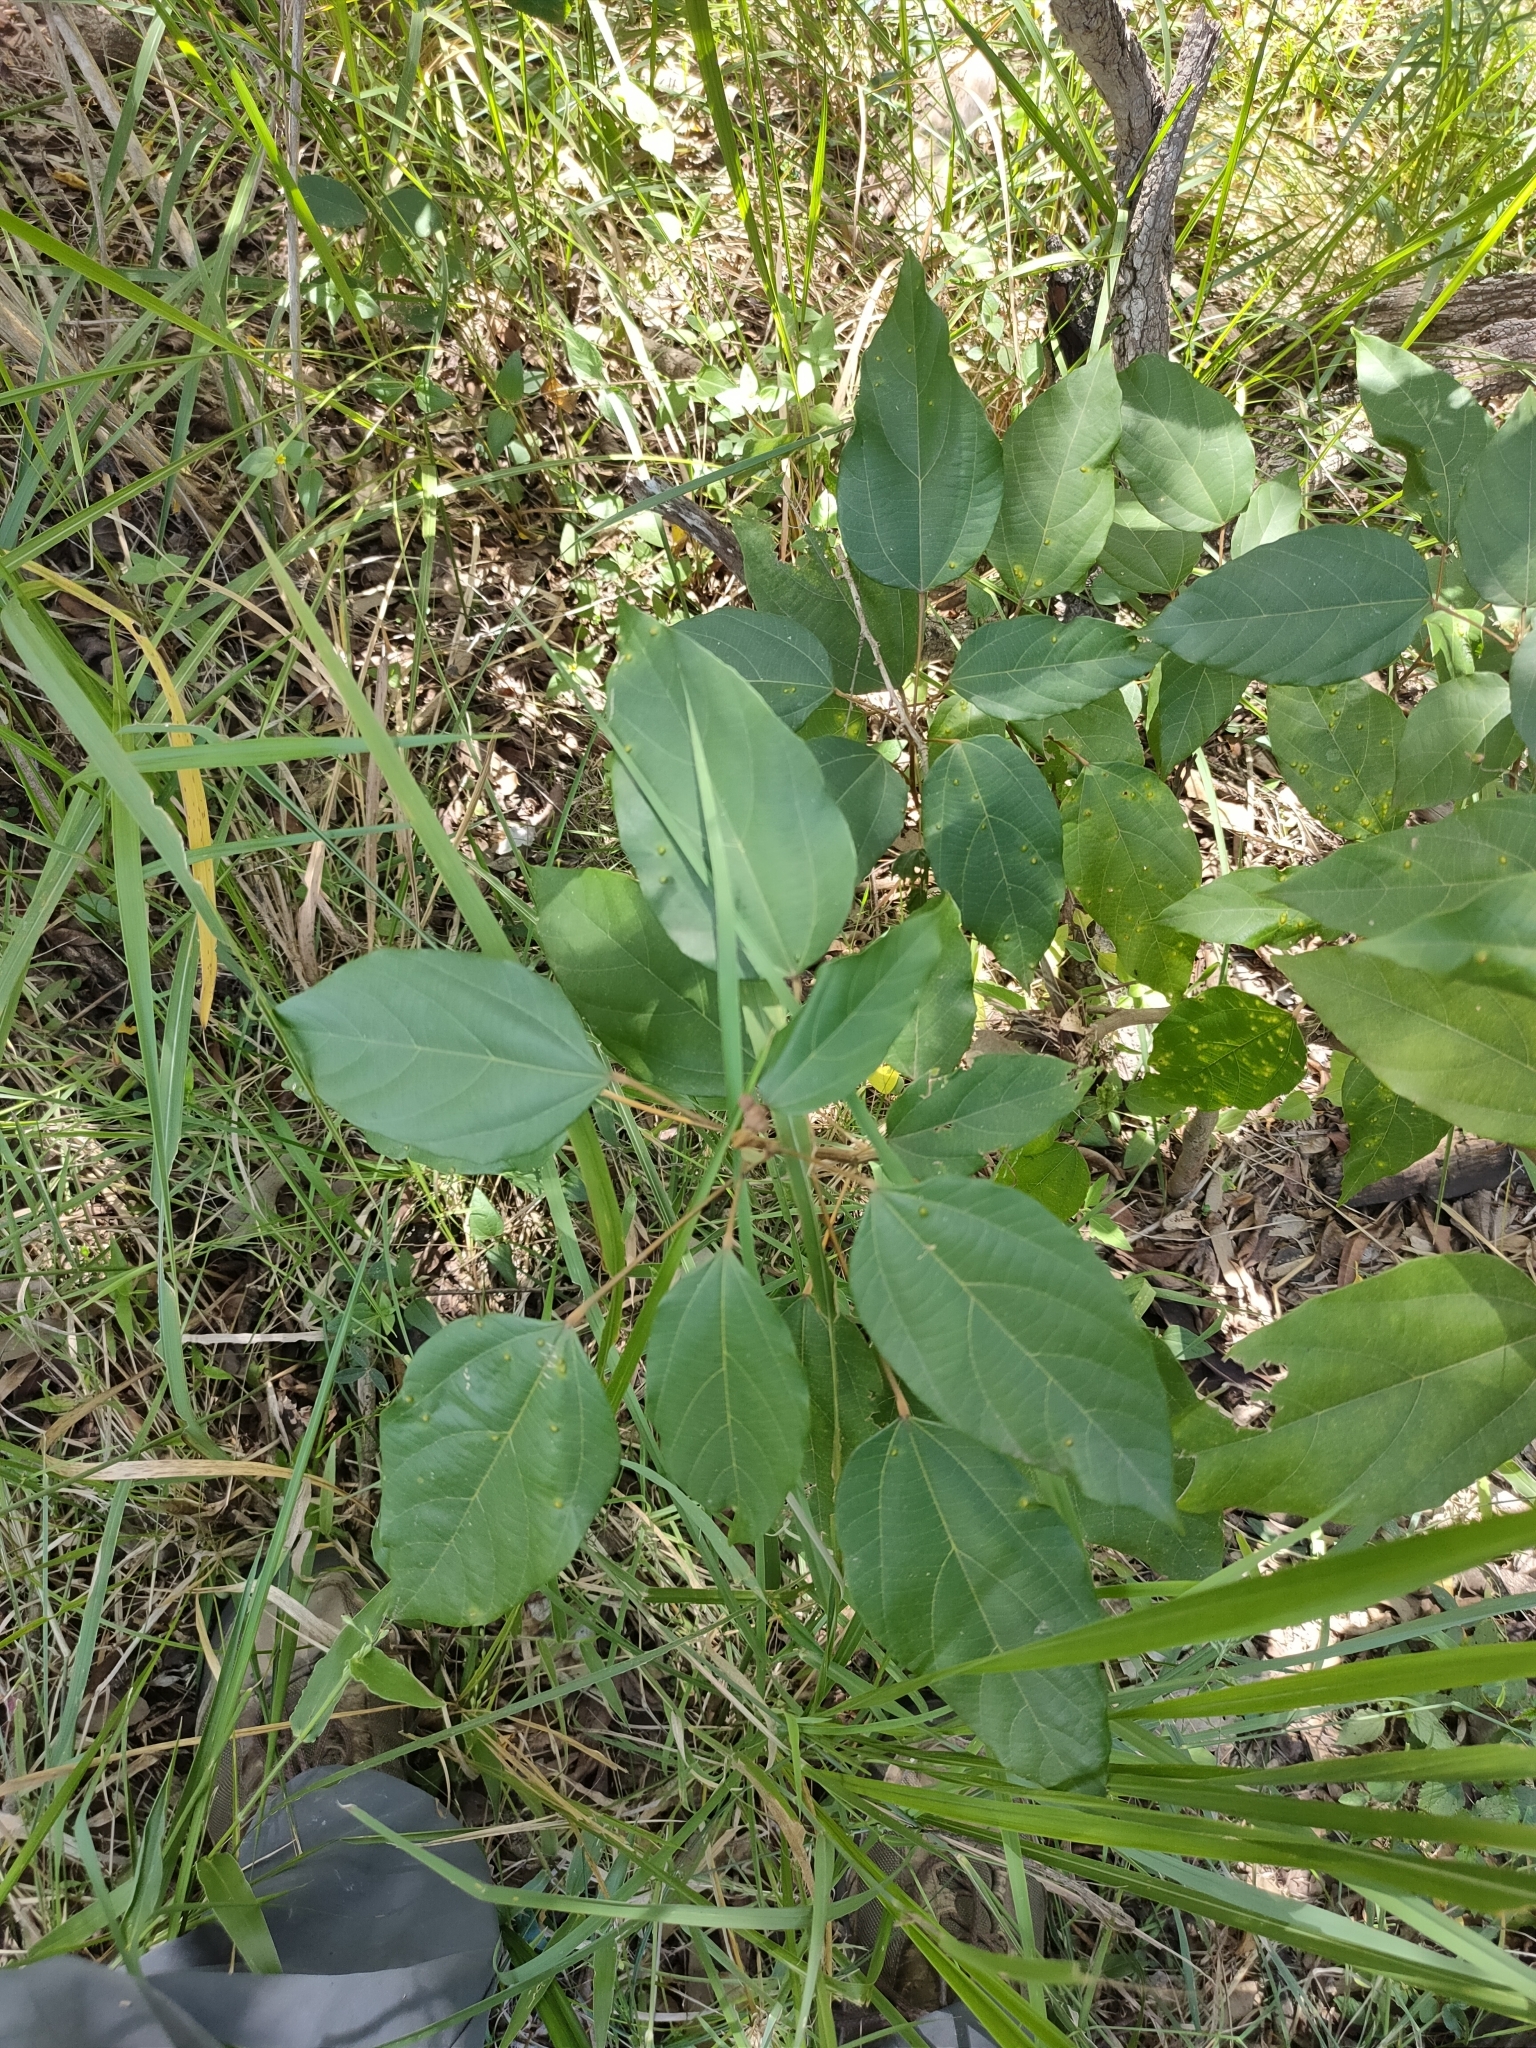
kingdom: Plantae
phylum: Tracheophyta
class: Magnoliopsida
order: Malpighiales
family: Euphorbiaceae
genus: Mallotus
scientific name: Mallotus philippensis
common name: Kamala tree
